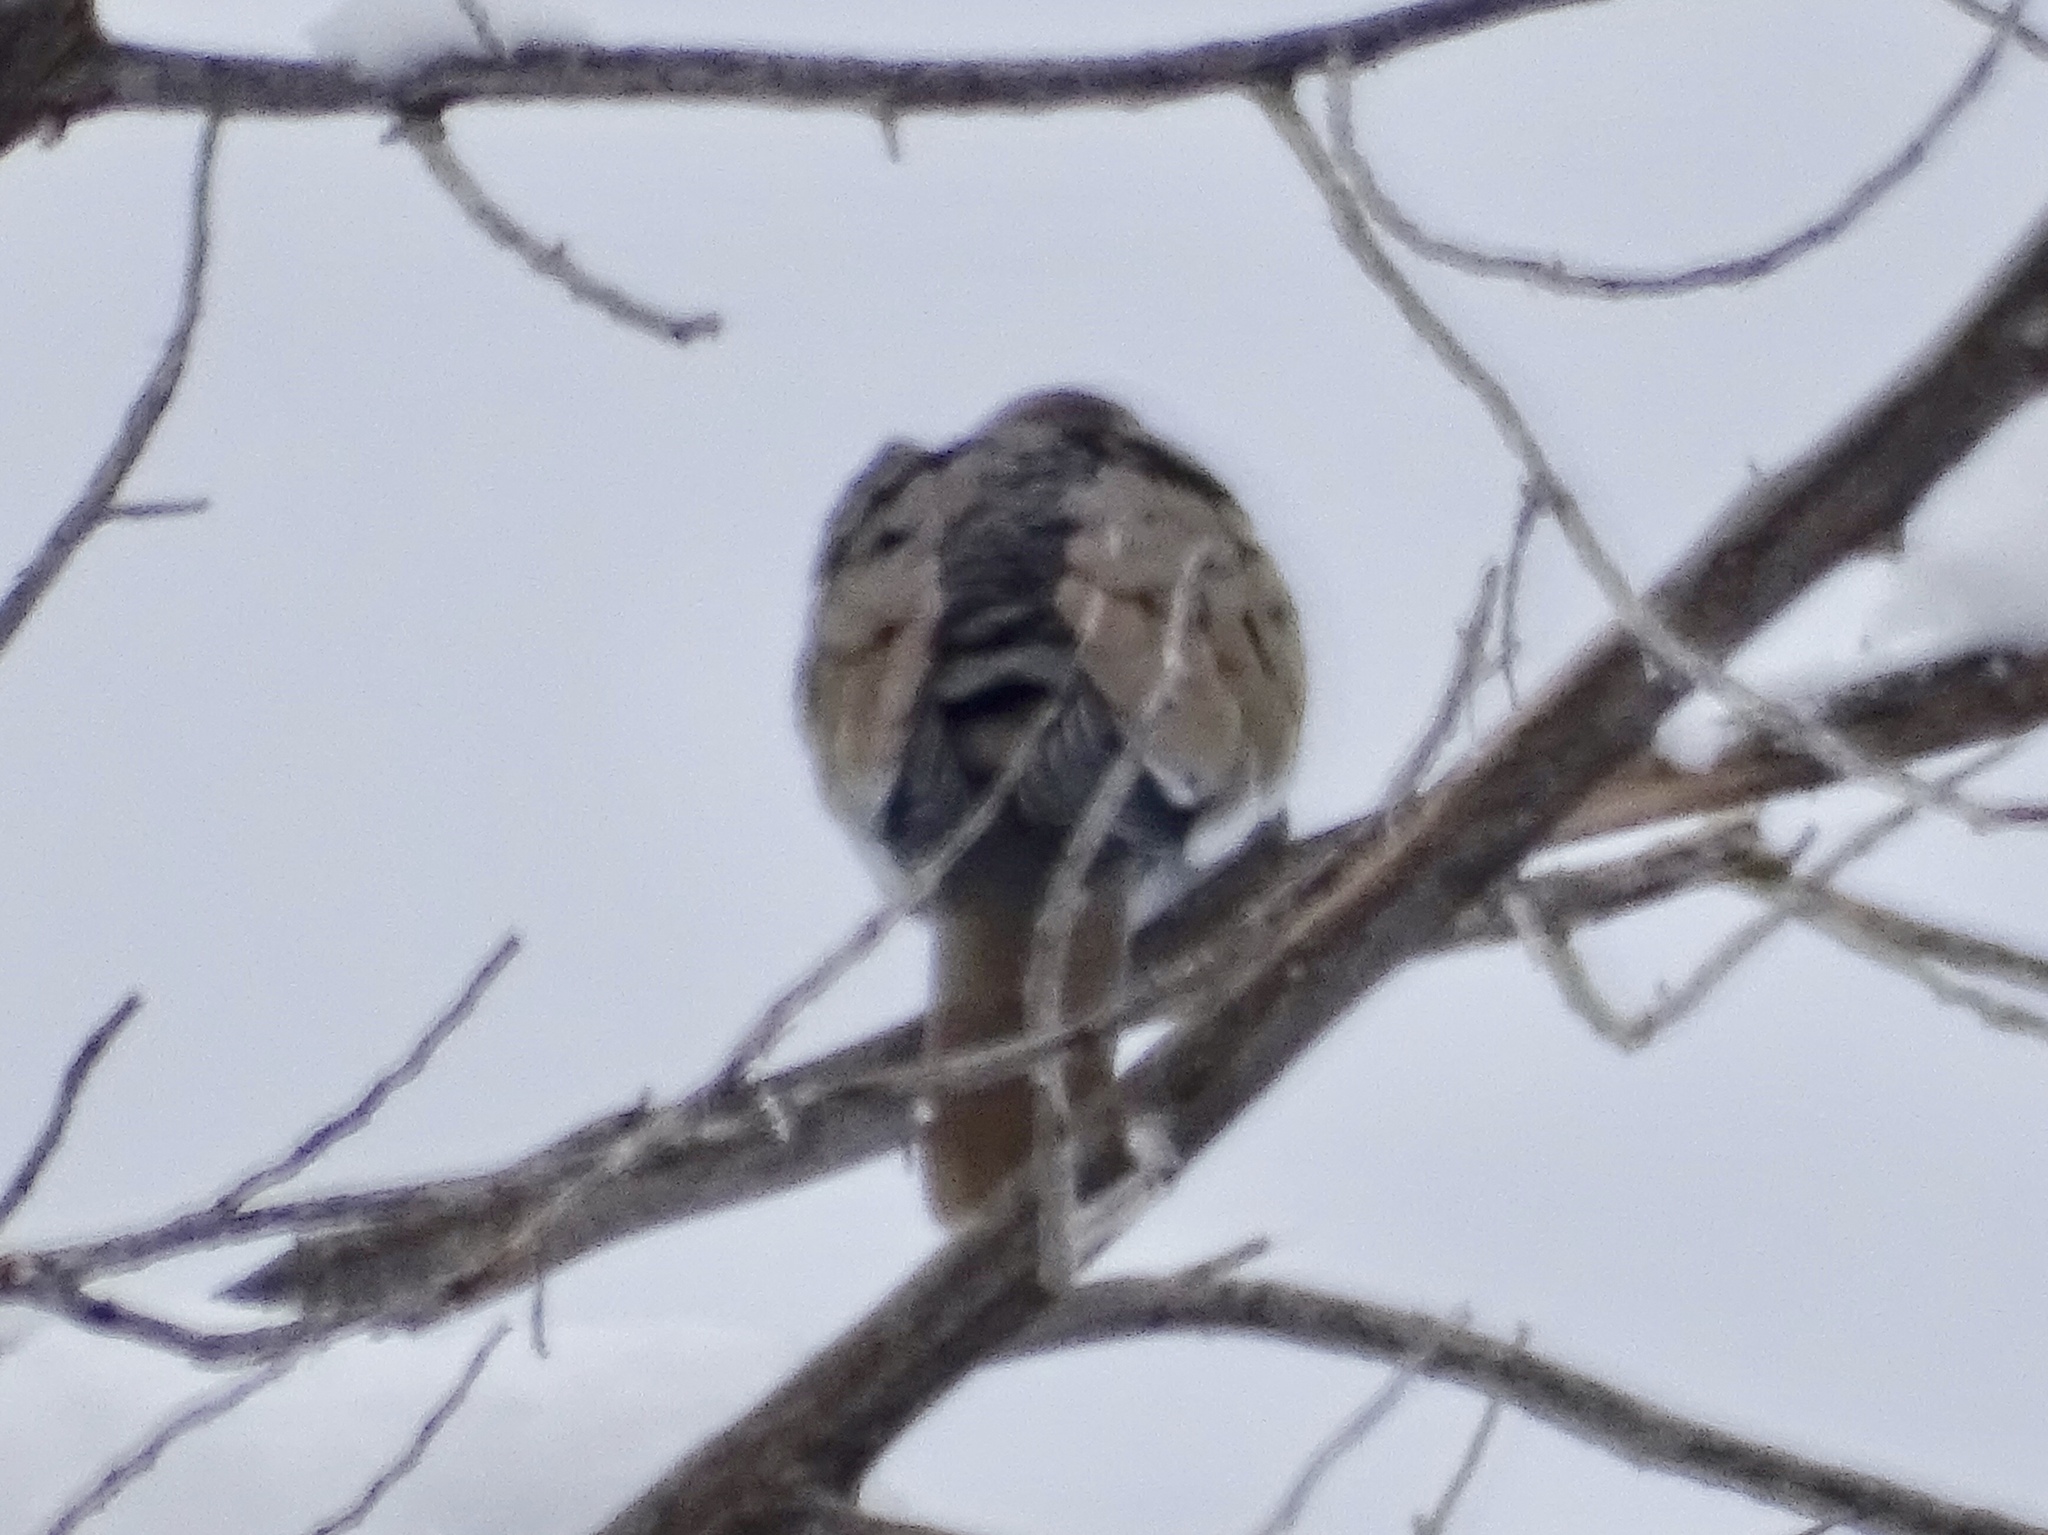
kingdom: Animalia
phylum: Chordata
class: Aves
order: Columbiformes
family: Columbidae
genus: Zenaida
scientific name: Zenaida macroura
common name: Mourning dove
